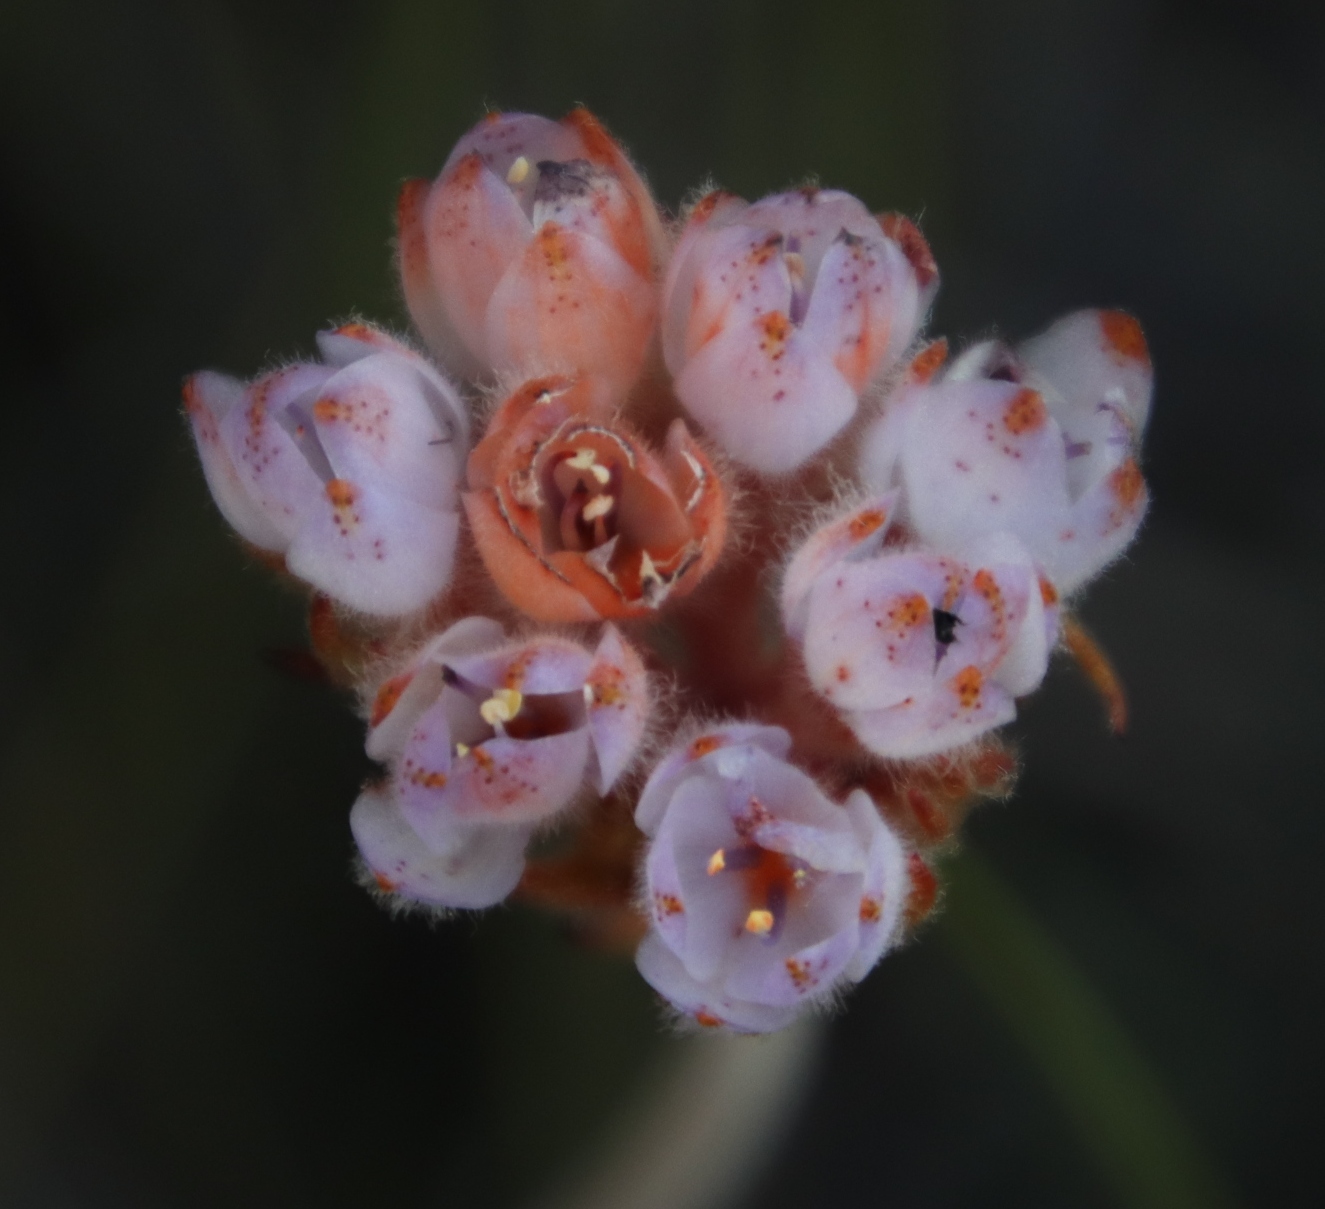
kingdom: Plantae
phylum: Tracheophyta
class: Liliopsida
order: Commelinales
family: Haemodoraceae
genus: Dilatris
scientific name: Dilatris pillansii
